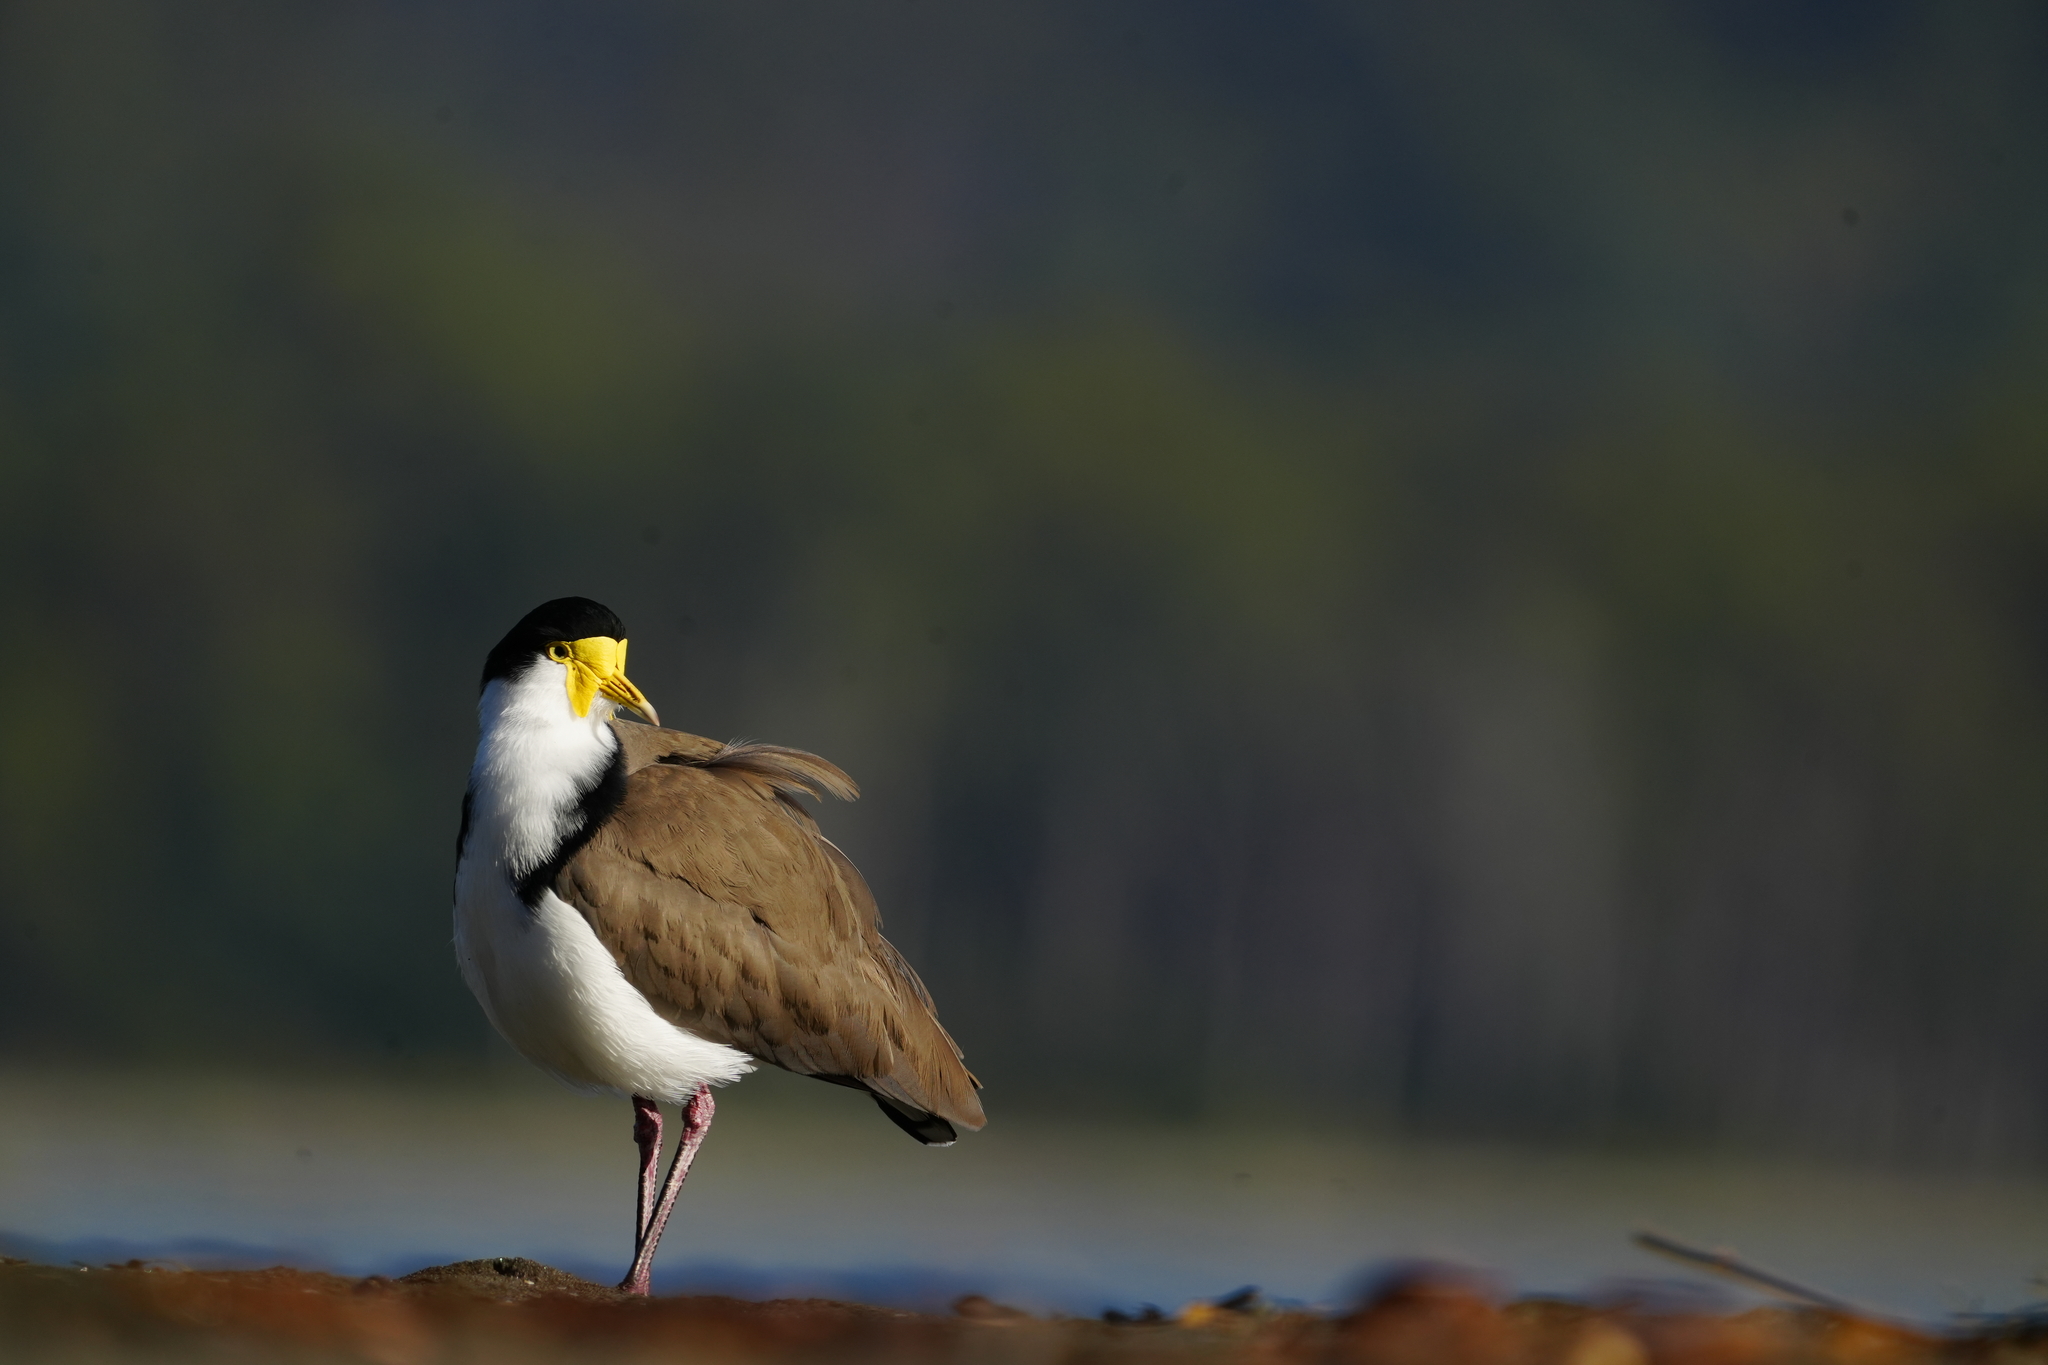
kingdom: Animalia
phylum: Chordata
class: Aves
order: Charadriiformes
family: Charadriidae
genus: Vanellus
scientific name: Vanellus miles
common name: Masked lapwing
